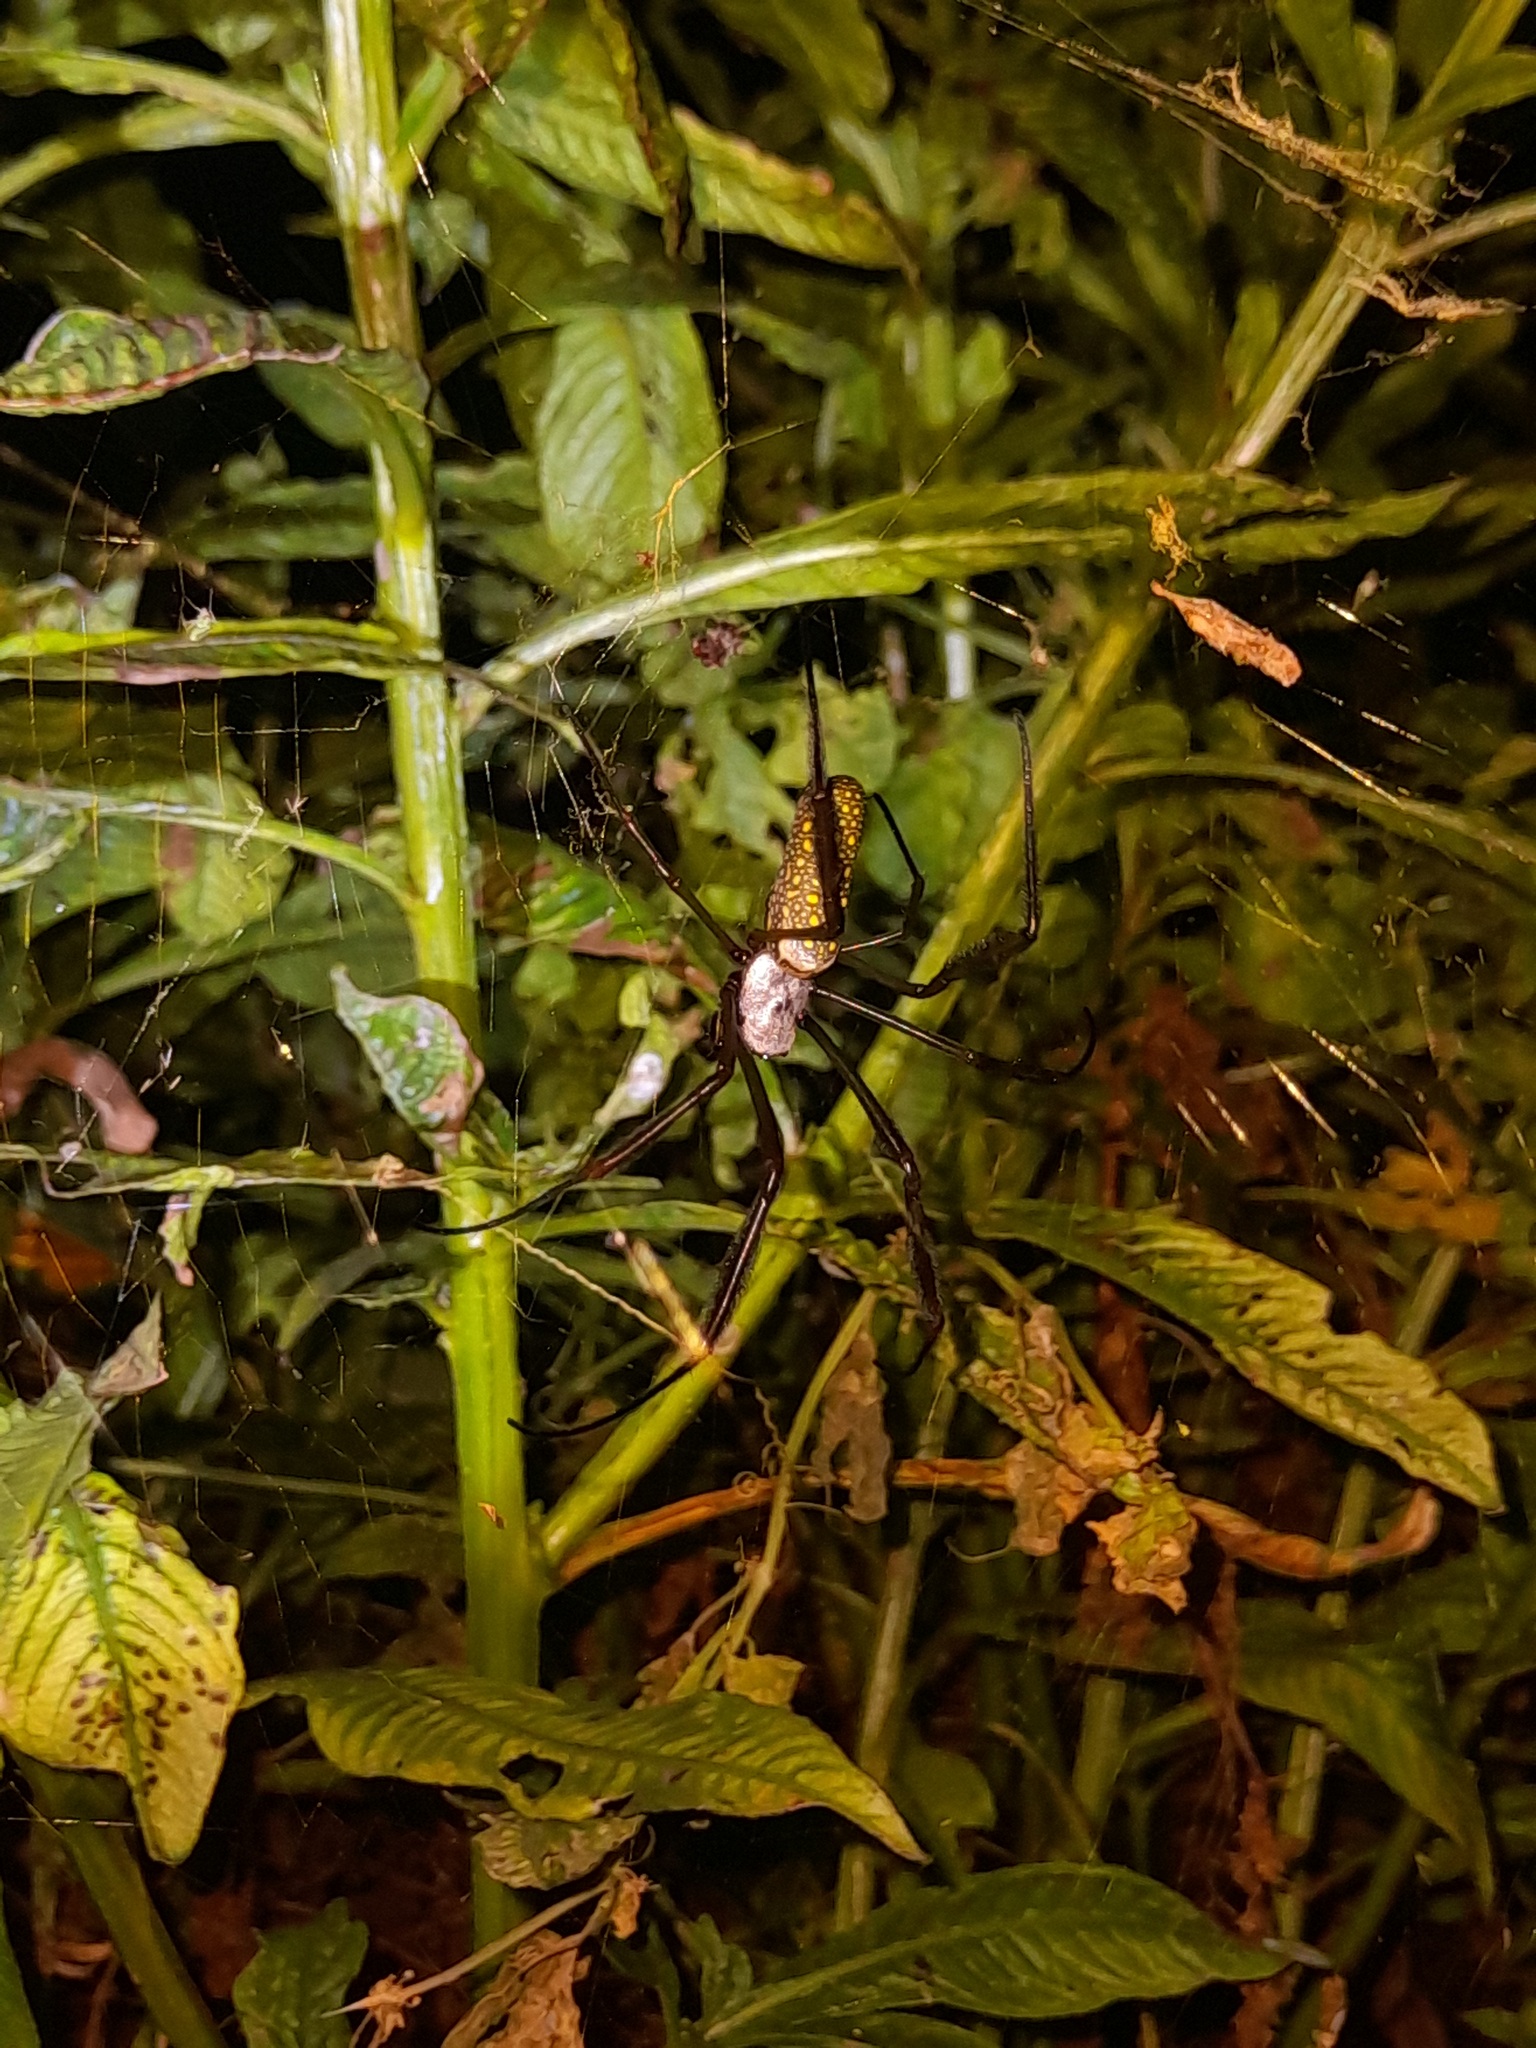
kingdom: Animalia
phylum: Arthropoda
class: Arachnida
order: Araneae
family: Araneidae
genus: Trichonephila
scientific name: Trichonephila clavipes
